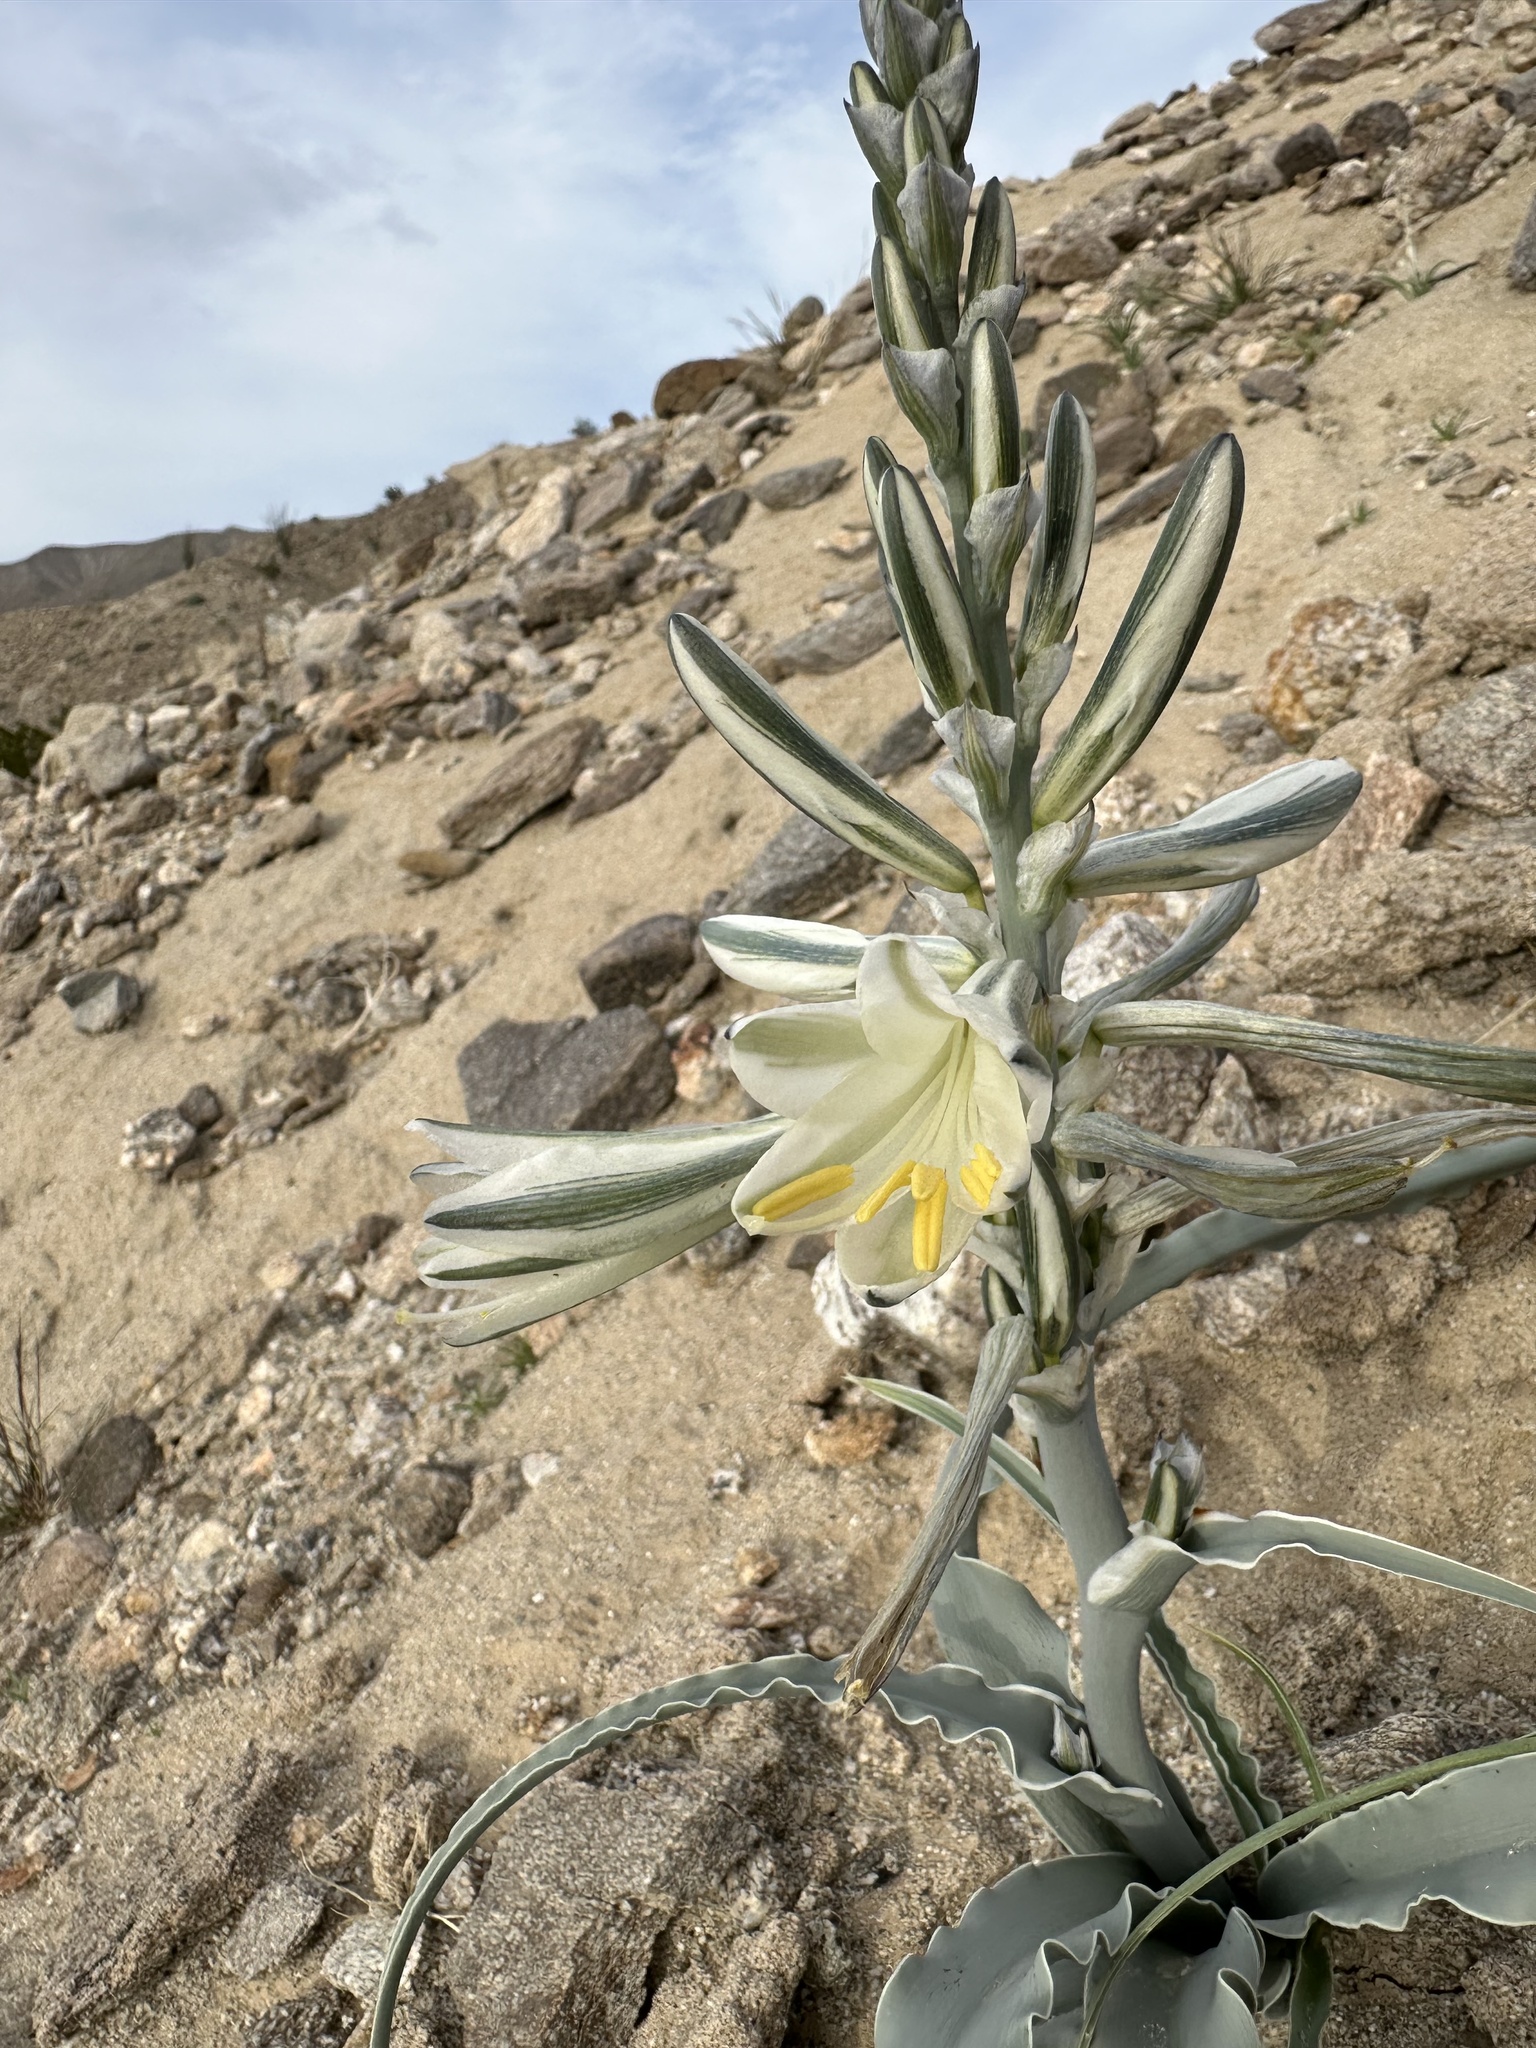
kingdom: Plantae
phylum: Tracheophyta
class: Liliopsida
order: Asparagales
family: Asparagaceae
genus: Hesperocallis
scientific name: Hesperocallis undulata
